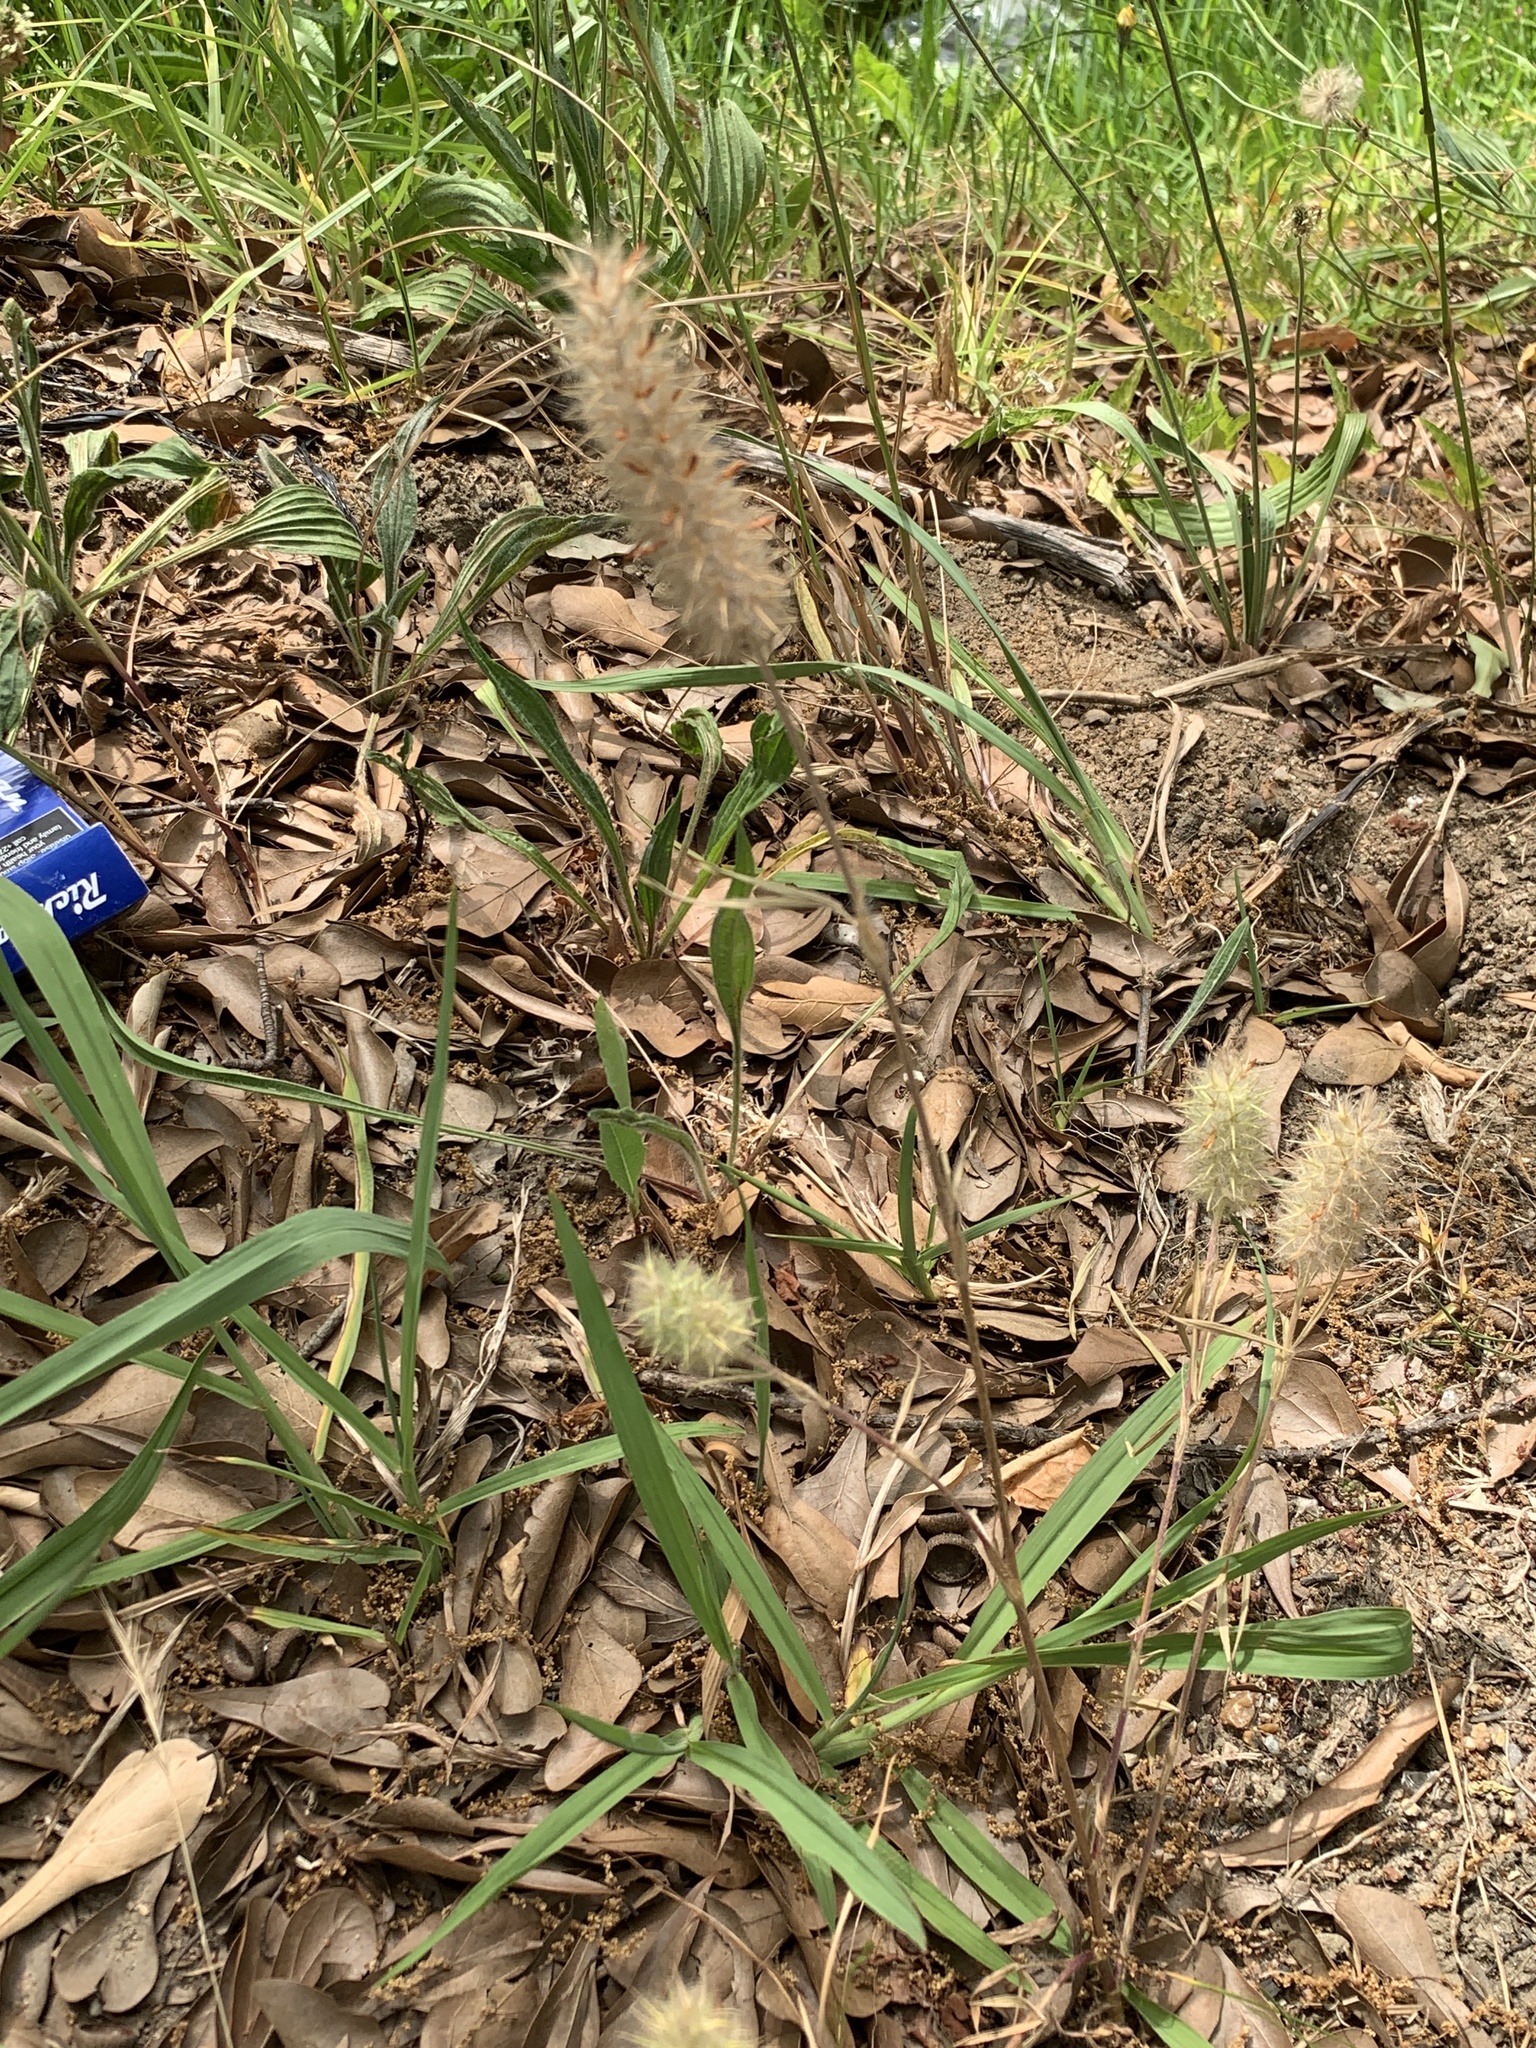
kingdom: Plantae
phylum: Tracheophyta
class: Magnoliopsida
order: Fabales
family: Fabaceae
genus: Trifolium
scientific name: Trifolium angustifolium
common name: Narrow clover
